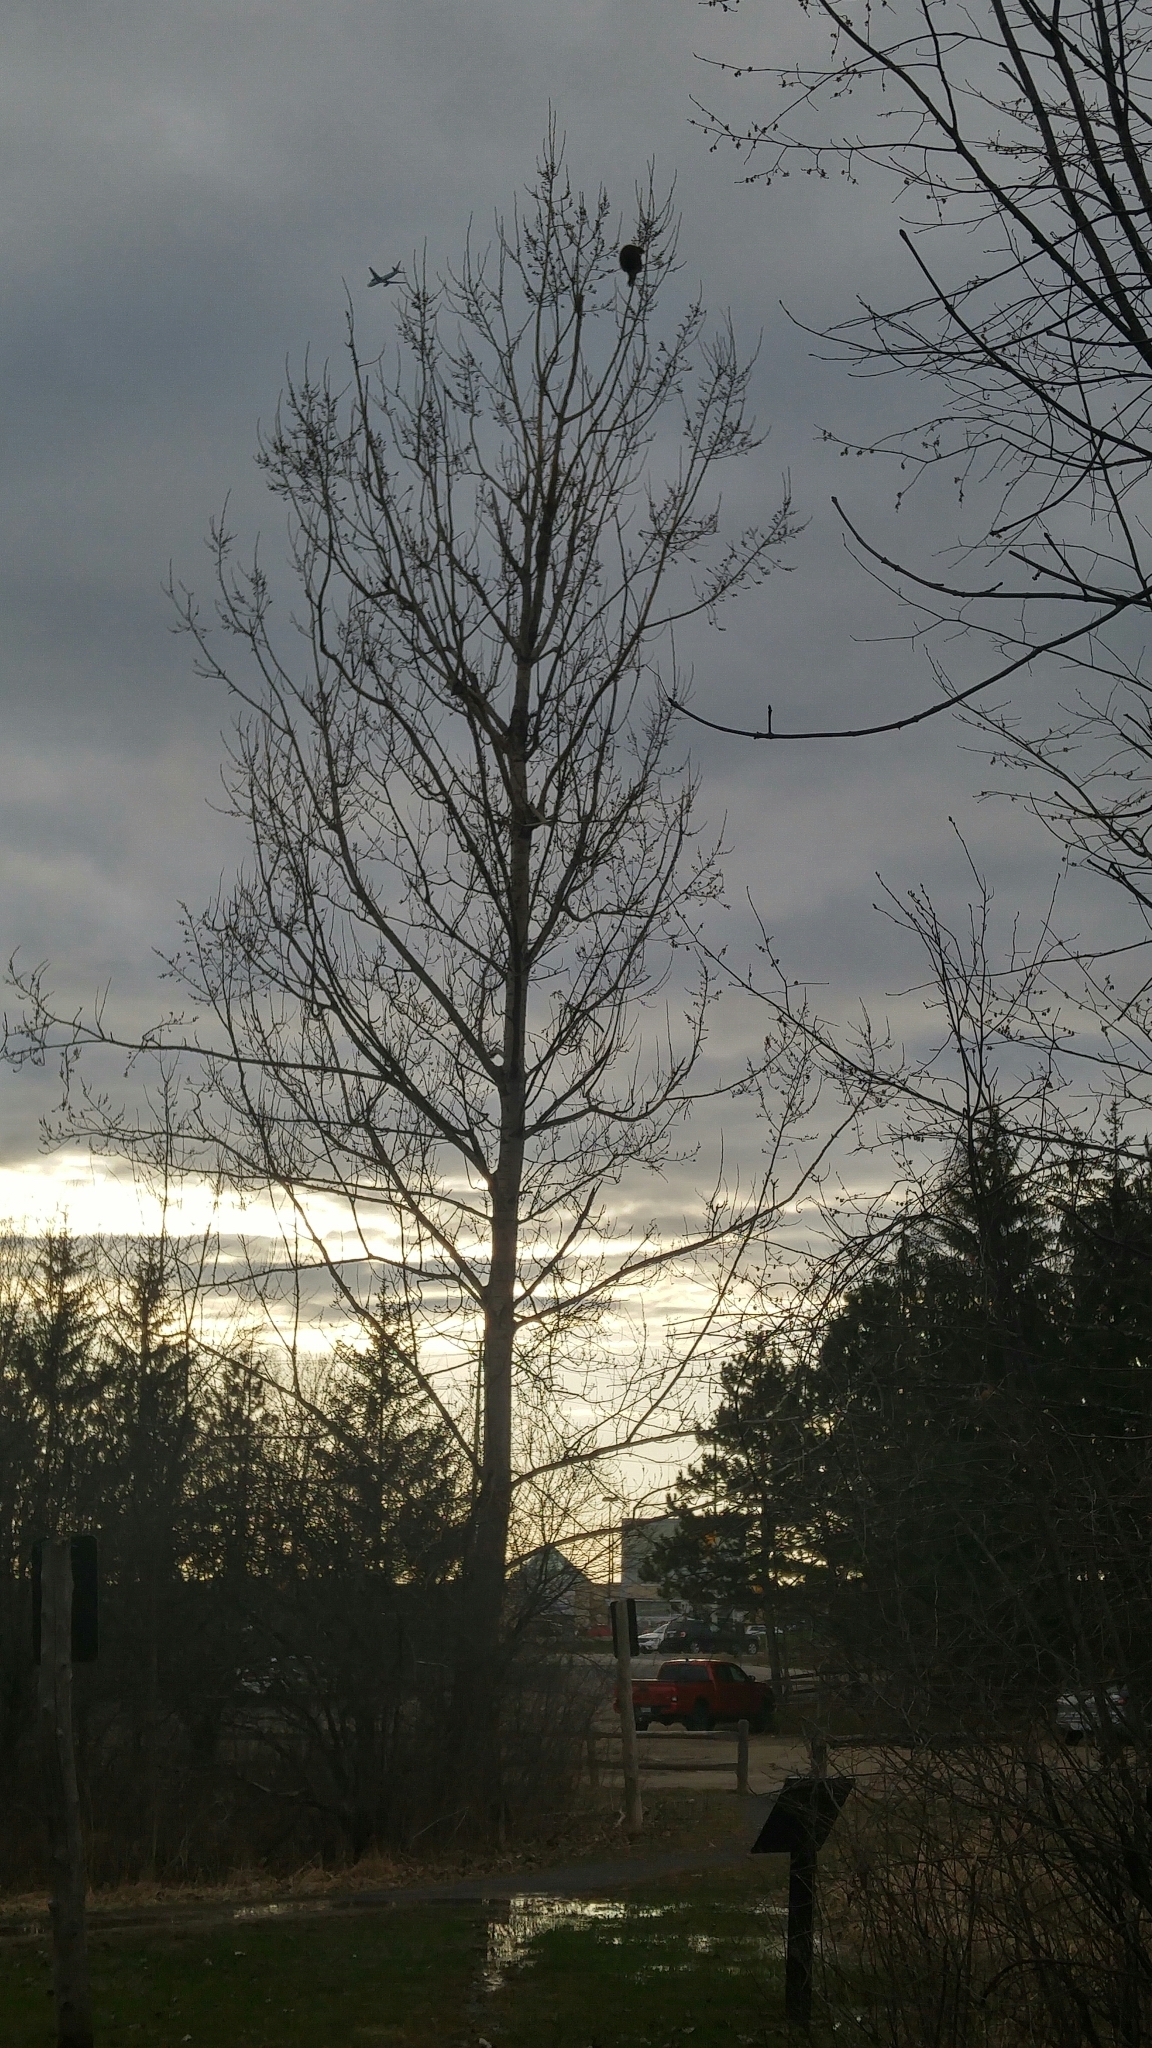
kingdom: Animalia
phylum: Chordata
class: Mammalia
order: Rodentia
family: Erethizontidae
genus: Erethizon
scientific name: Erethizon dorsatus
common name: North american porcupine
